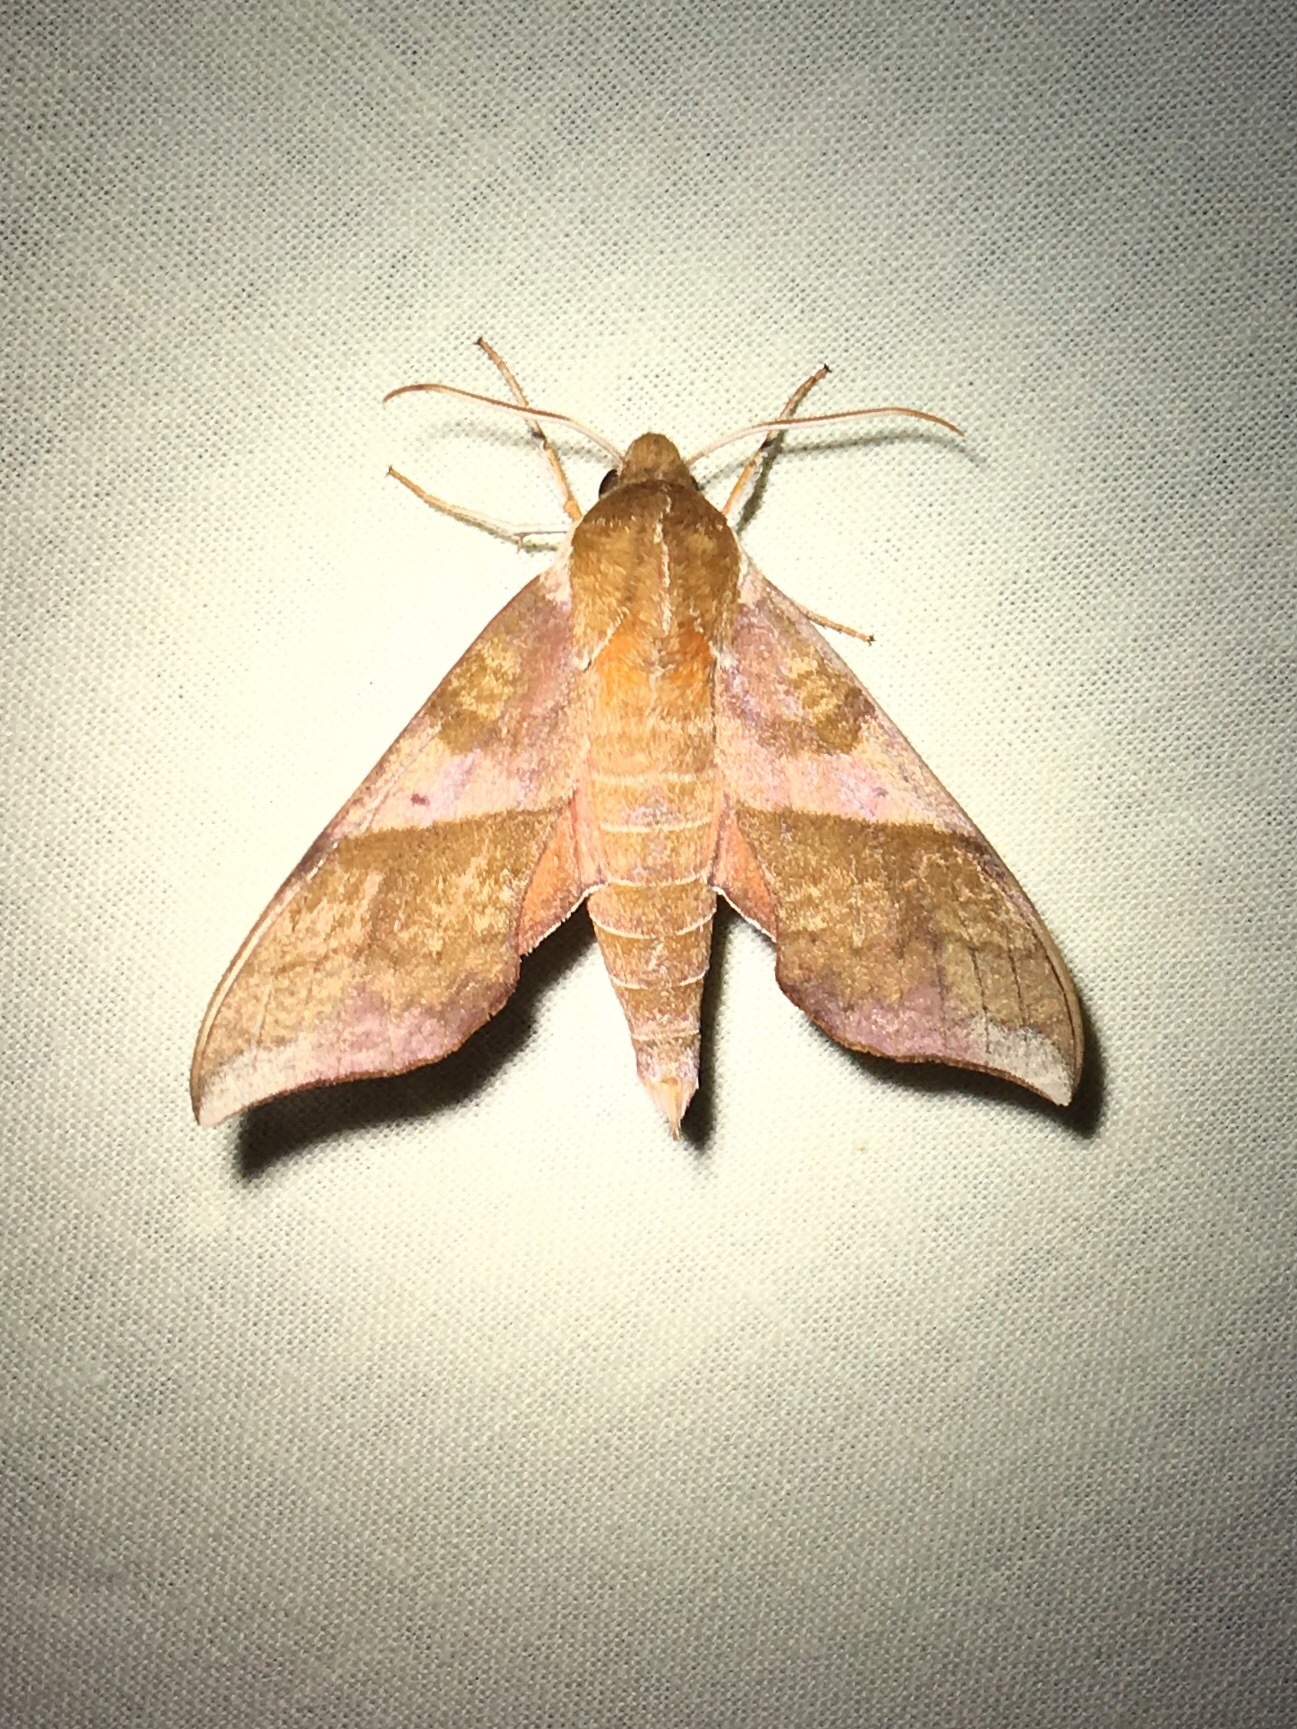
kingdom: Animalia
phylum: Arthropoda
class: Insecta
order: Lepidoptera
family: Sphingidae
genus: Darapsa
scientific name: Darapsa choerilus
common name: Azalea sphinx
